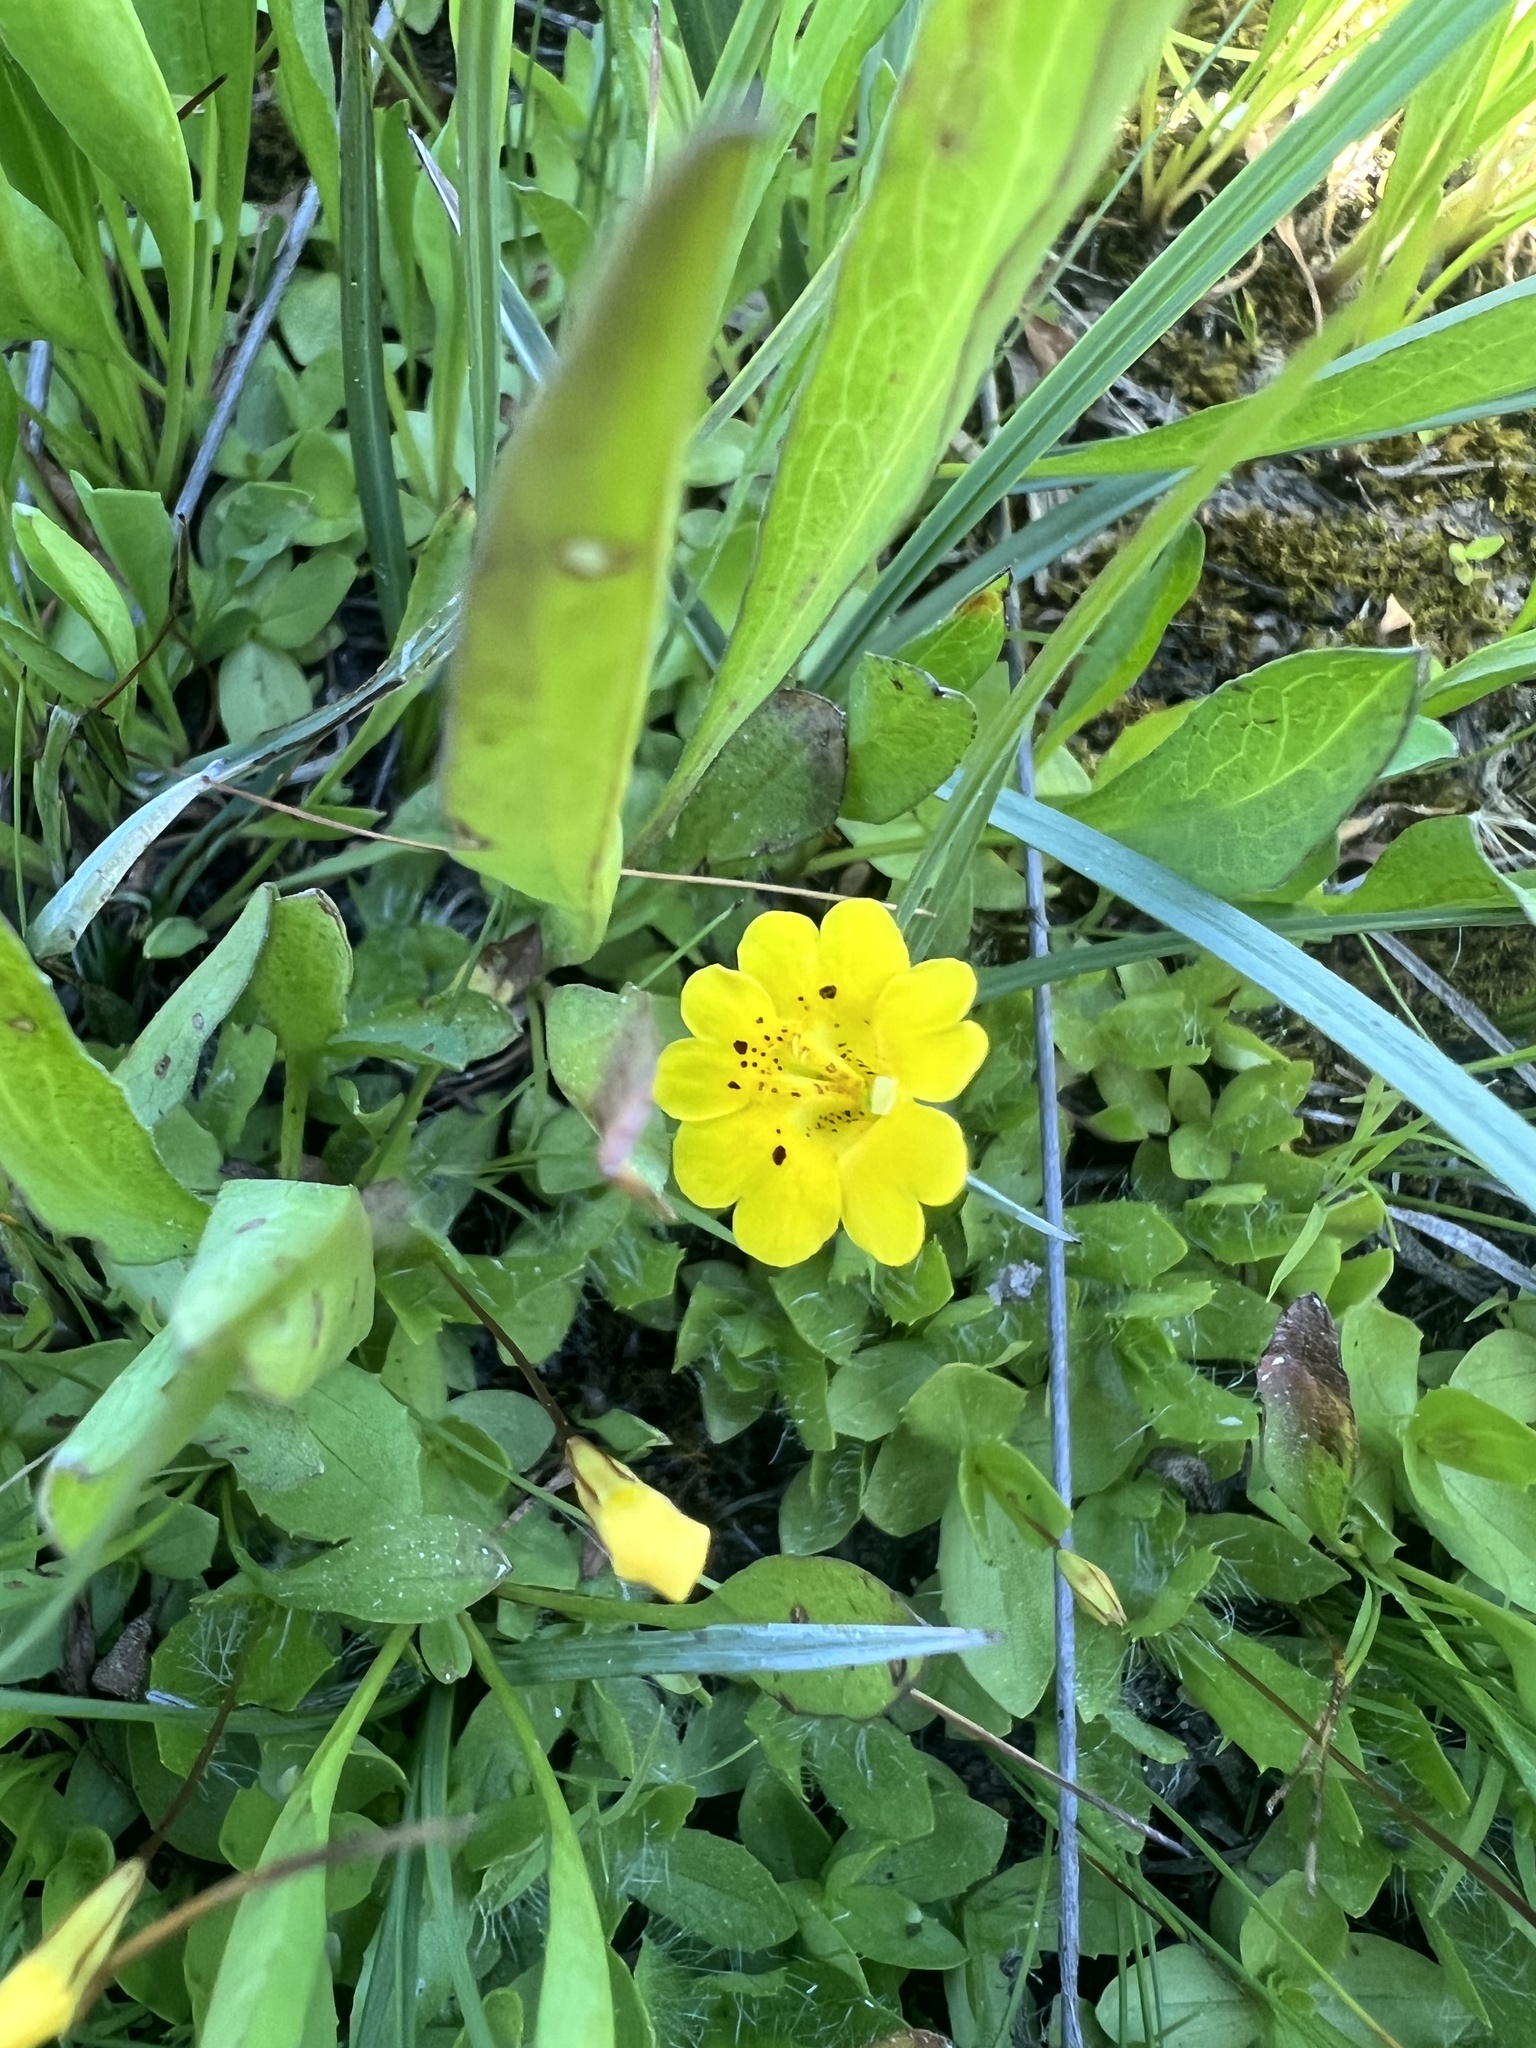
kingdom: Plantae
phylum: Tracheophyta
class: Magnoliopsida
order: Lamiales
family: Phrymaceae
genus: Erythranthe
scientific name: Erythranthe primuloides
